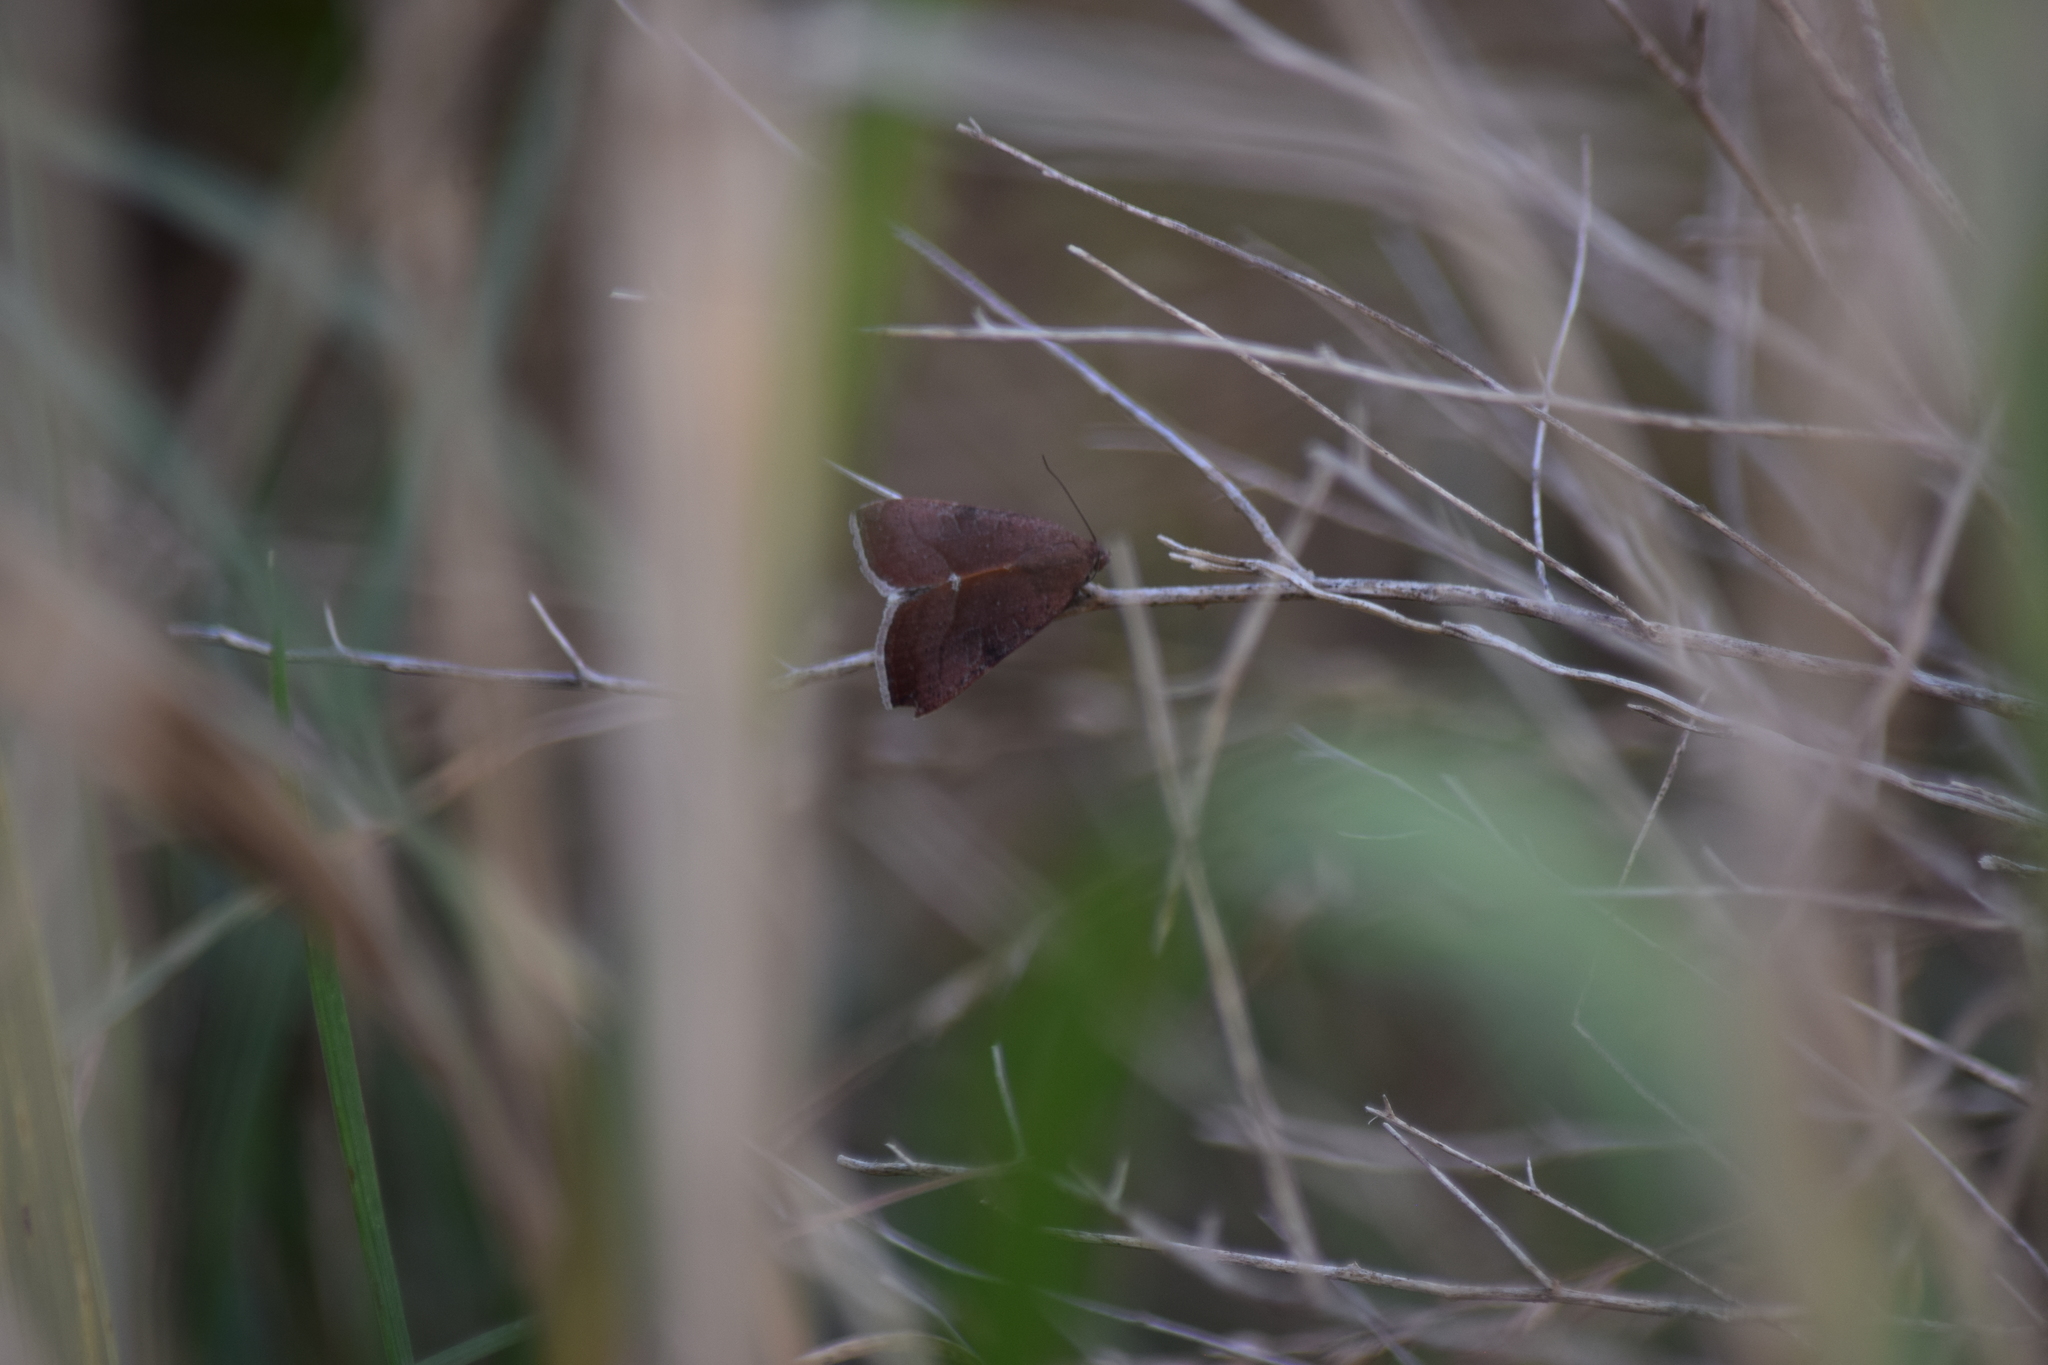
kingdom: Animalia
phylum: Arthropoda
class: Insecta
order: Lepidoptera
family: Noctuidae
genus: Galgula
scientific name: Galgula partita
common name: Wedgeling
